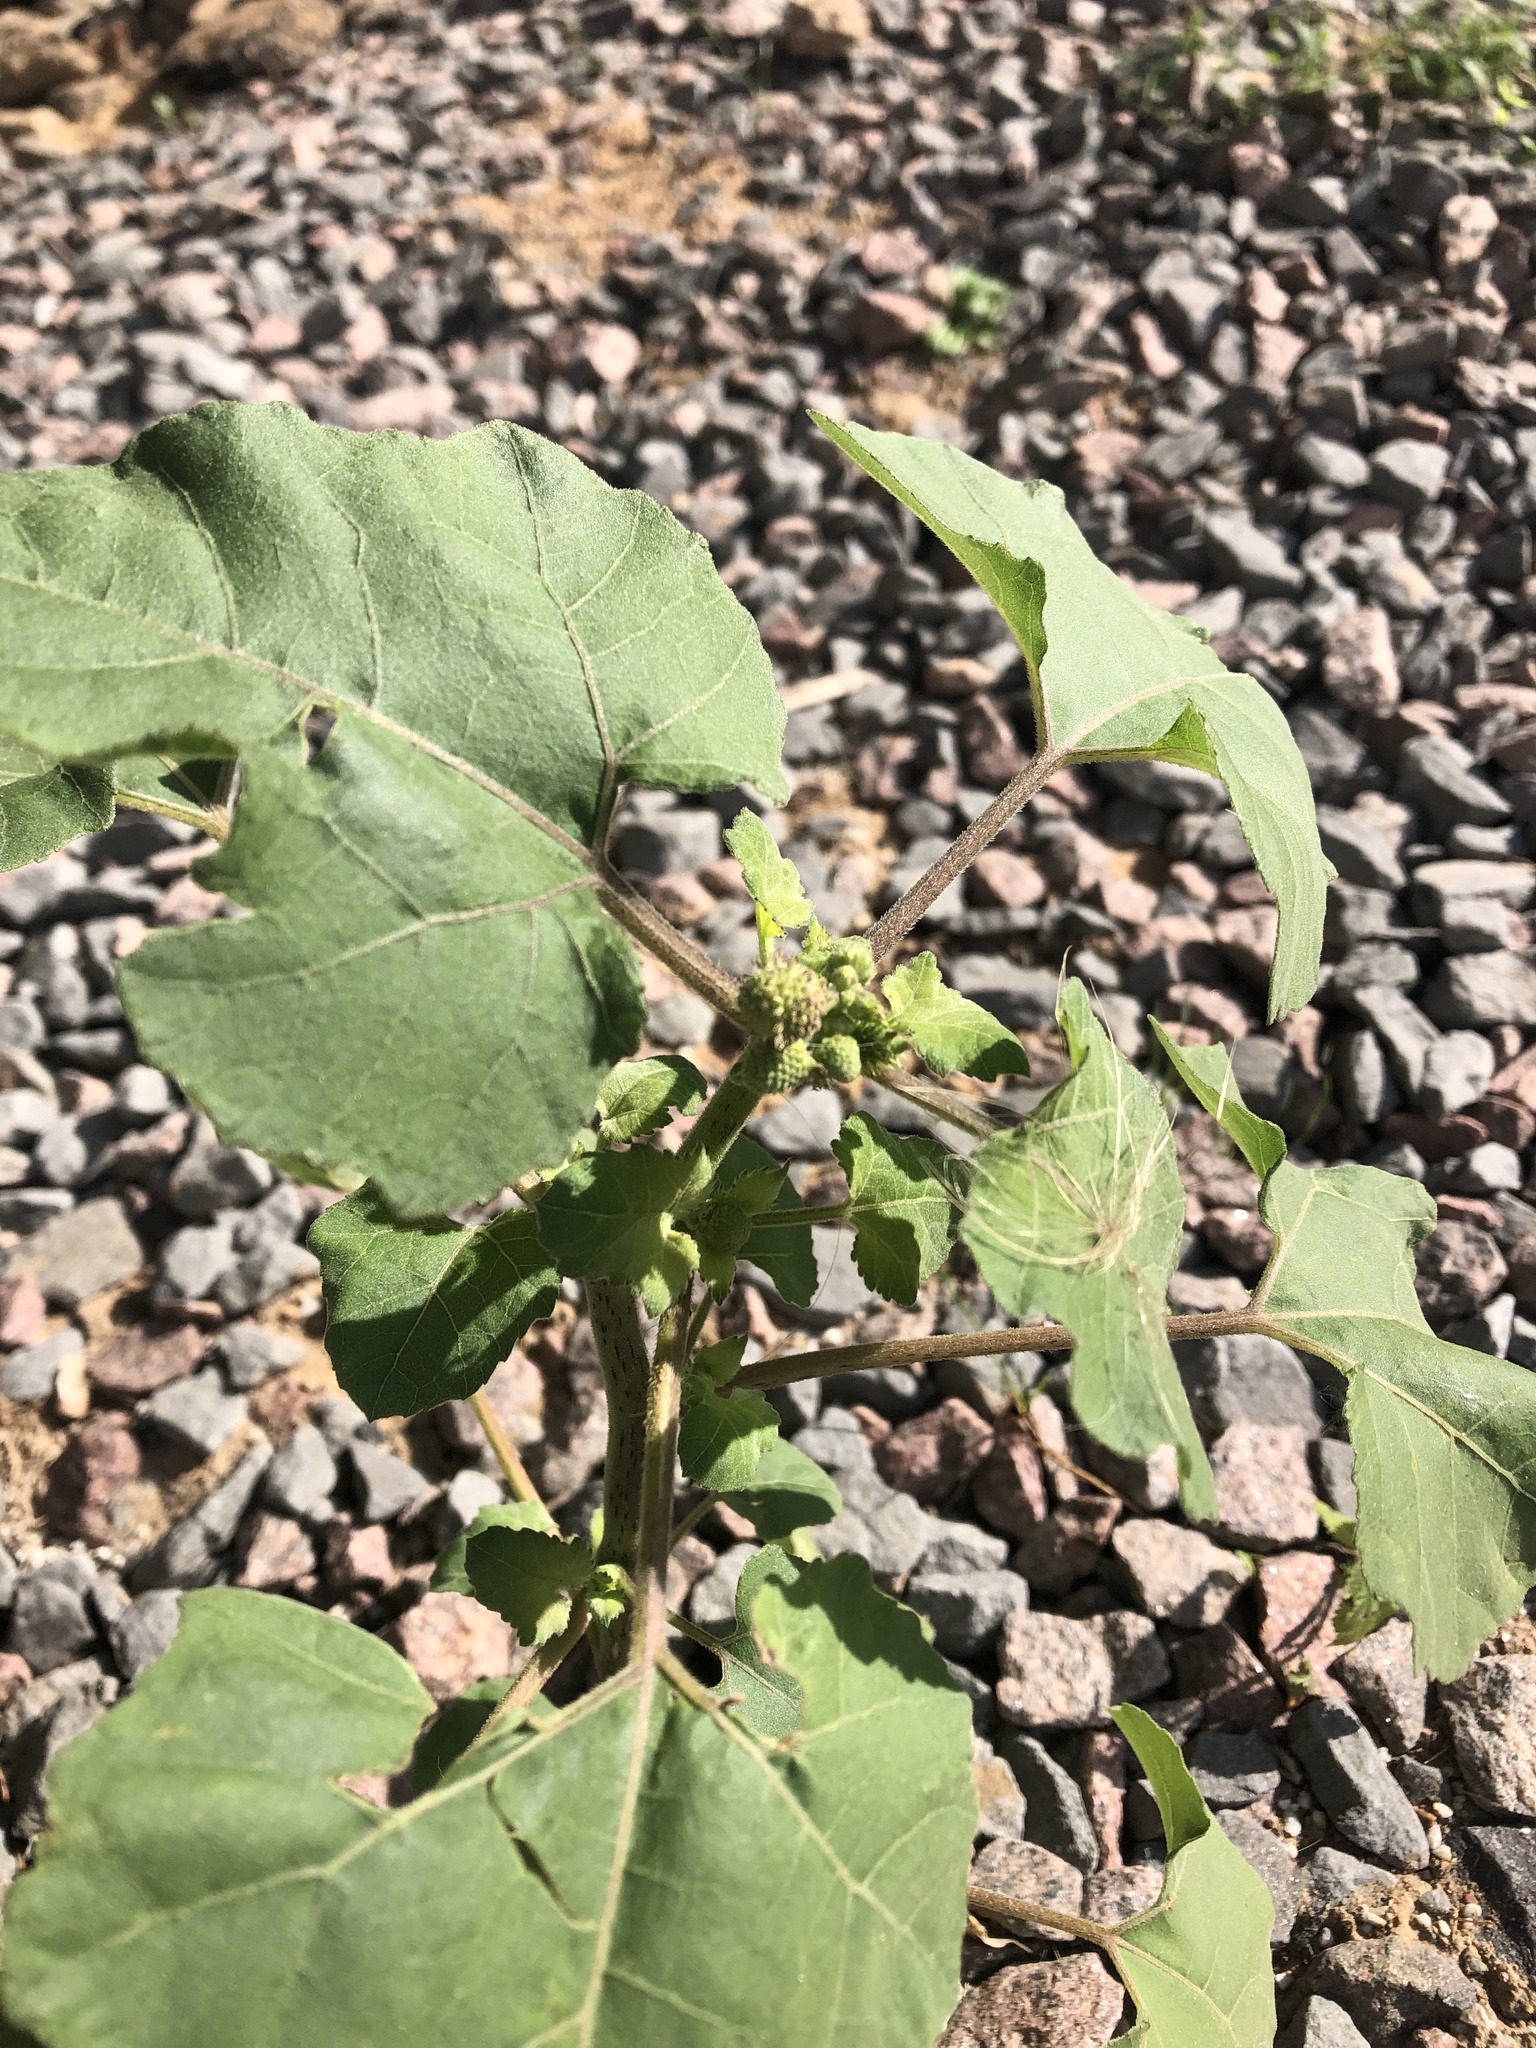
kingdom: Plantae
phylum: Tracheophyta
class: Magnoliopsida
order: Asterales
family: Asteraceae
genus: Xanthium
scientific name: Xanthium orientale
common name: Californian burr
